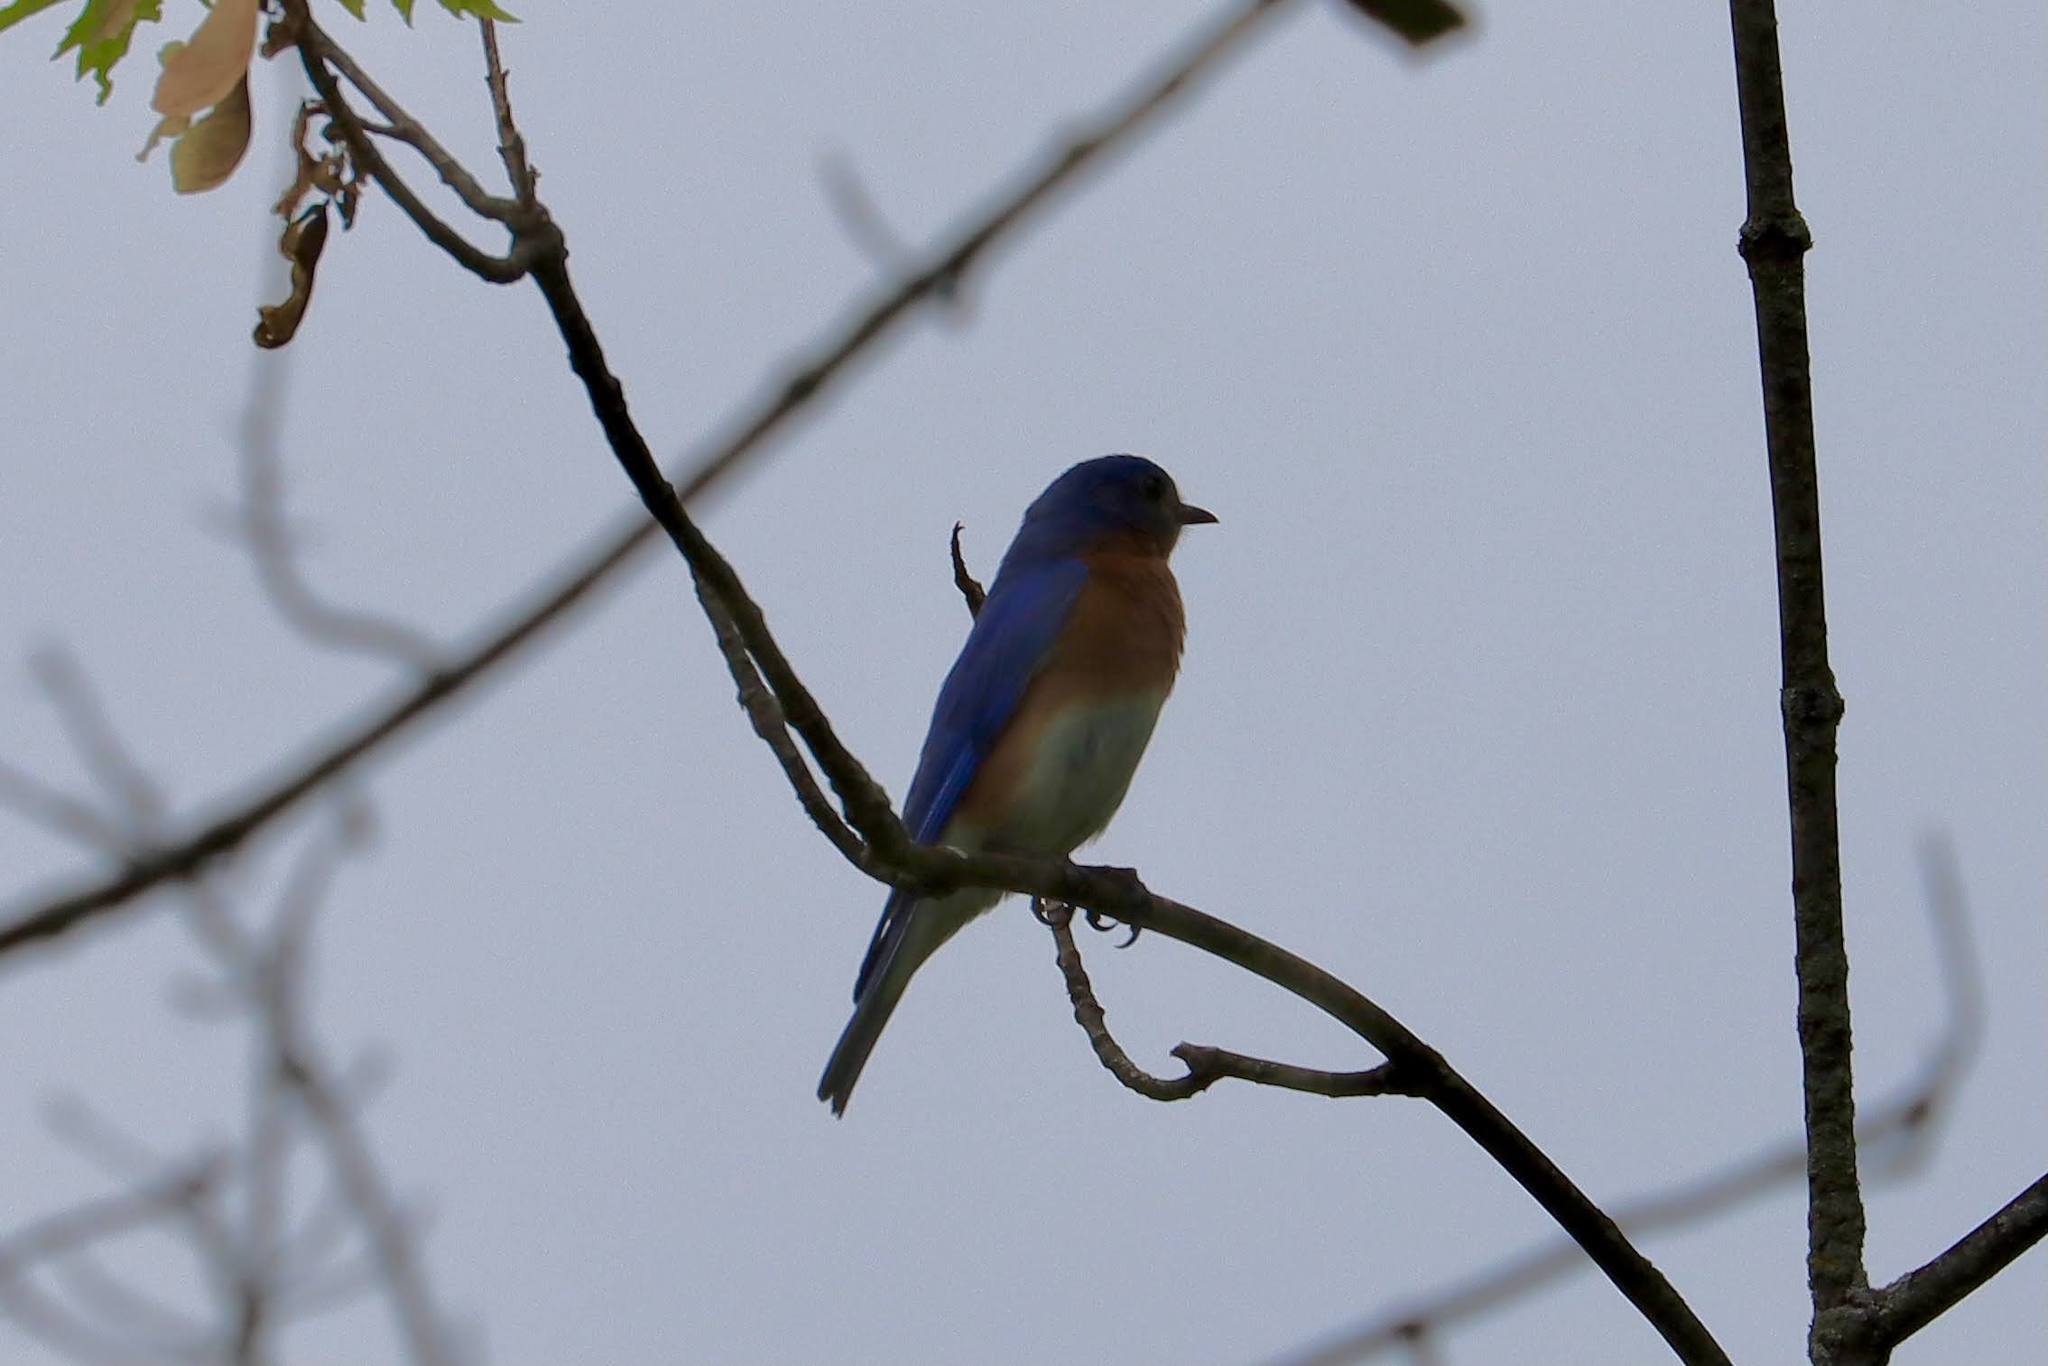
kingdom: Animalia
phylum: Chordata
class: Aves
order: Passeriformes
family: Turdidae
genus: Sialia
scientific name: Sialia sialis
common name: Eastern bluebird
